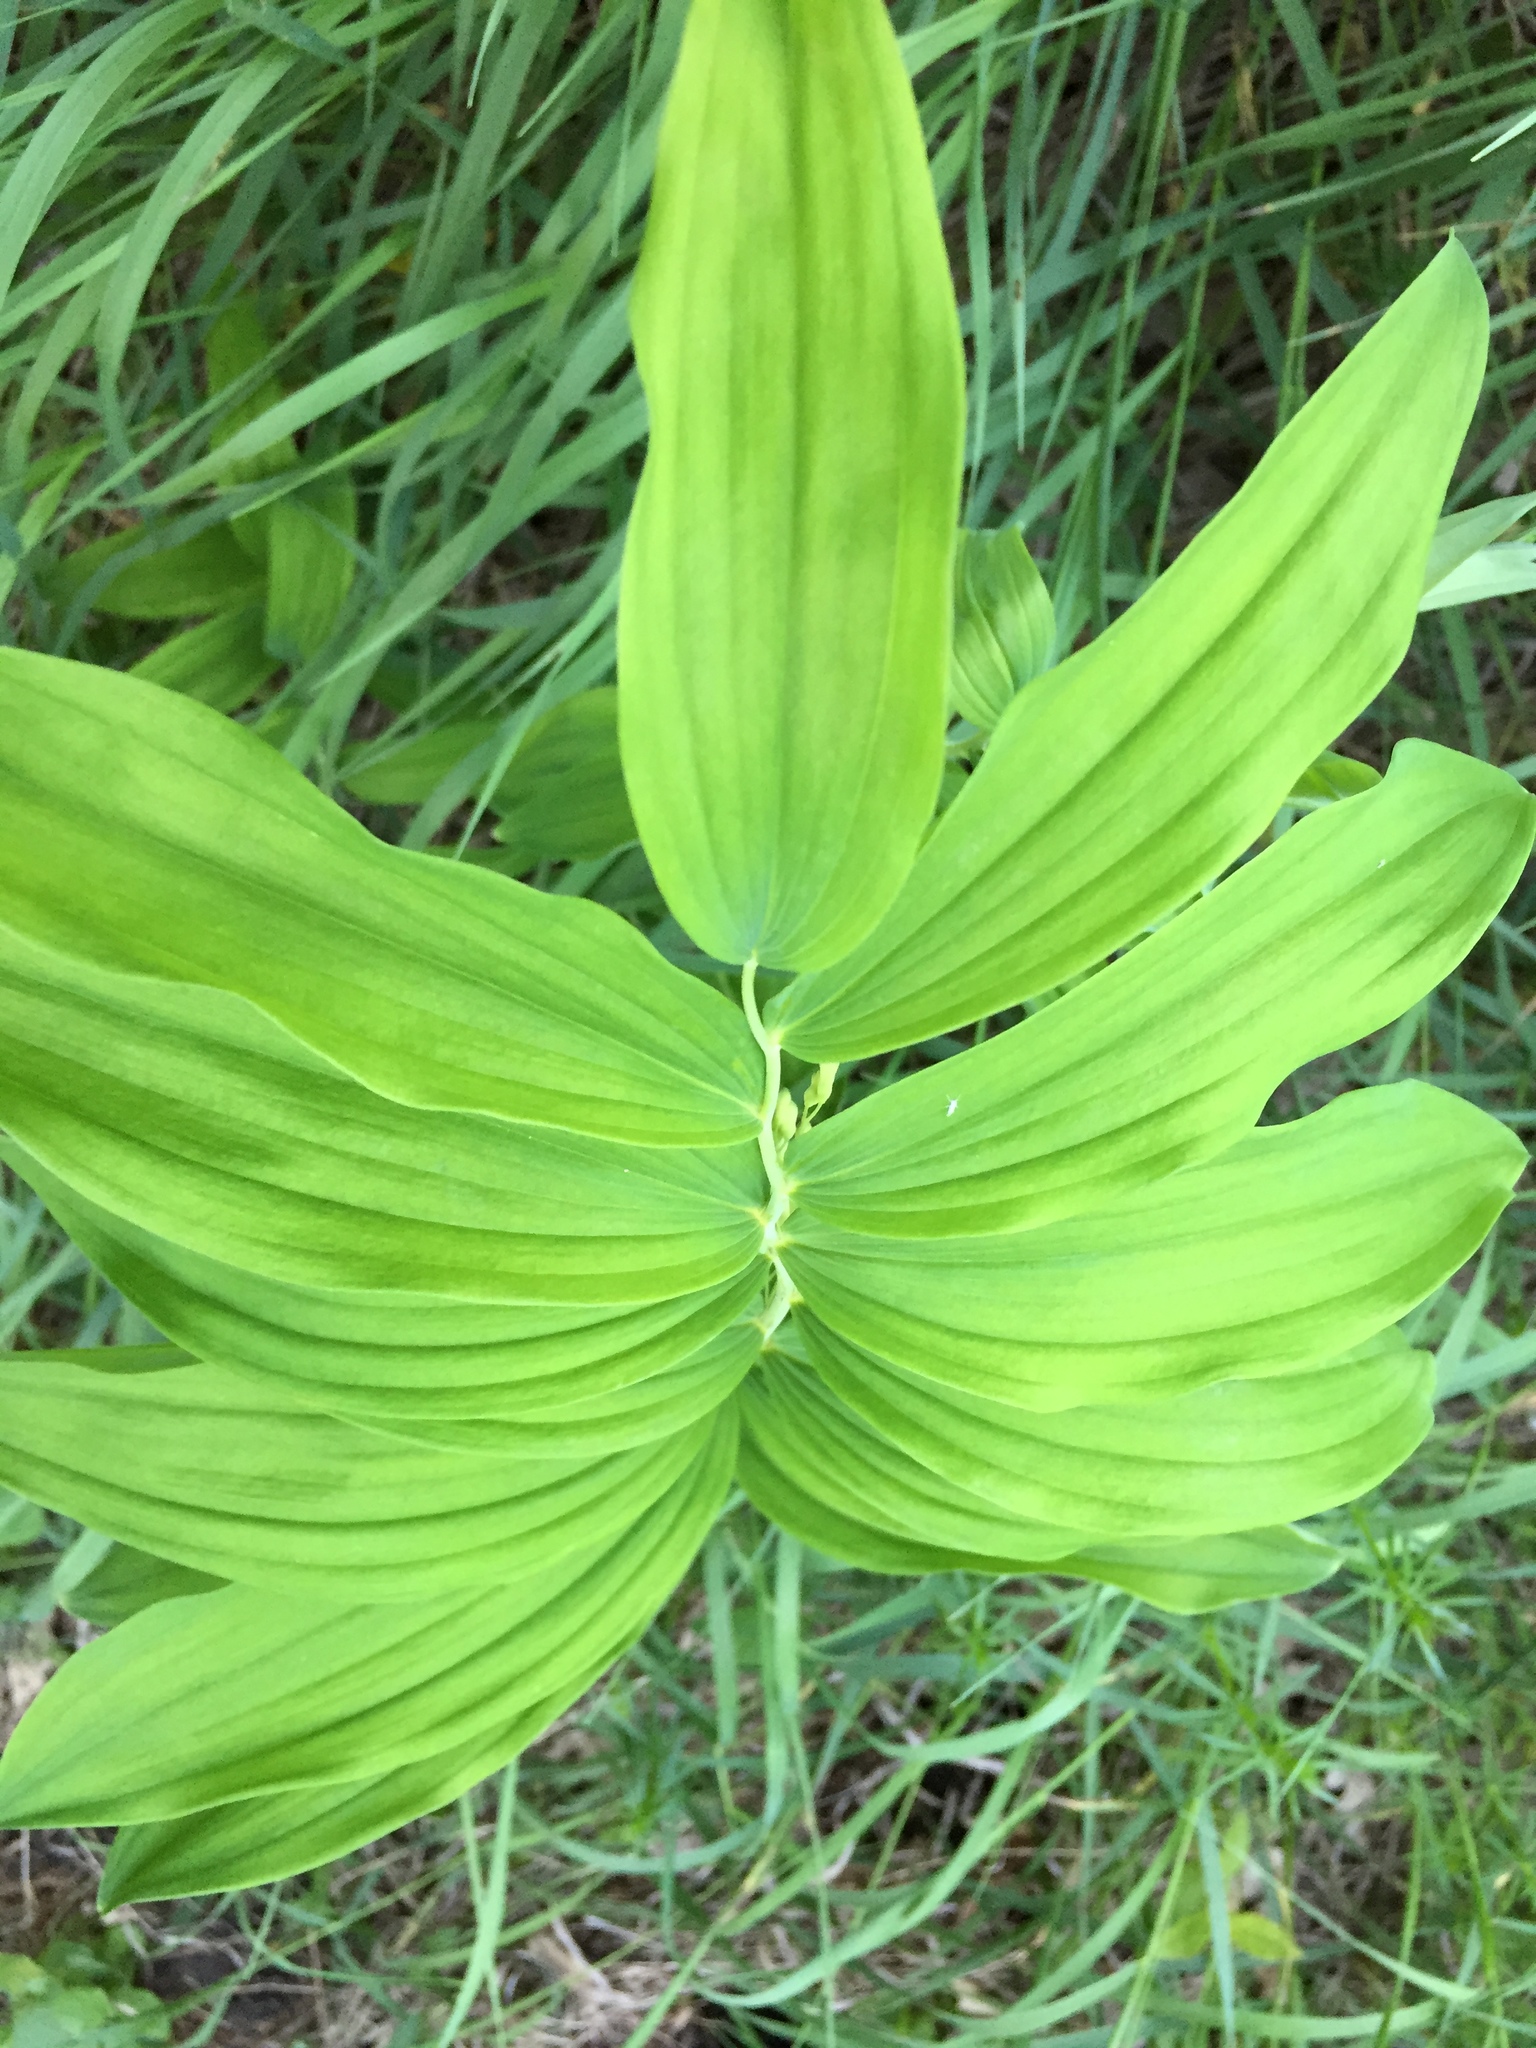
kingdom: Plantae
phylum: Tracheophyta
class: Liliopsida
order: Asparagales
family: Asparagaceae
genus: Polygonatum
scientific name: Polygonatum multiflorum
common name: Solomon's-seal
